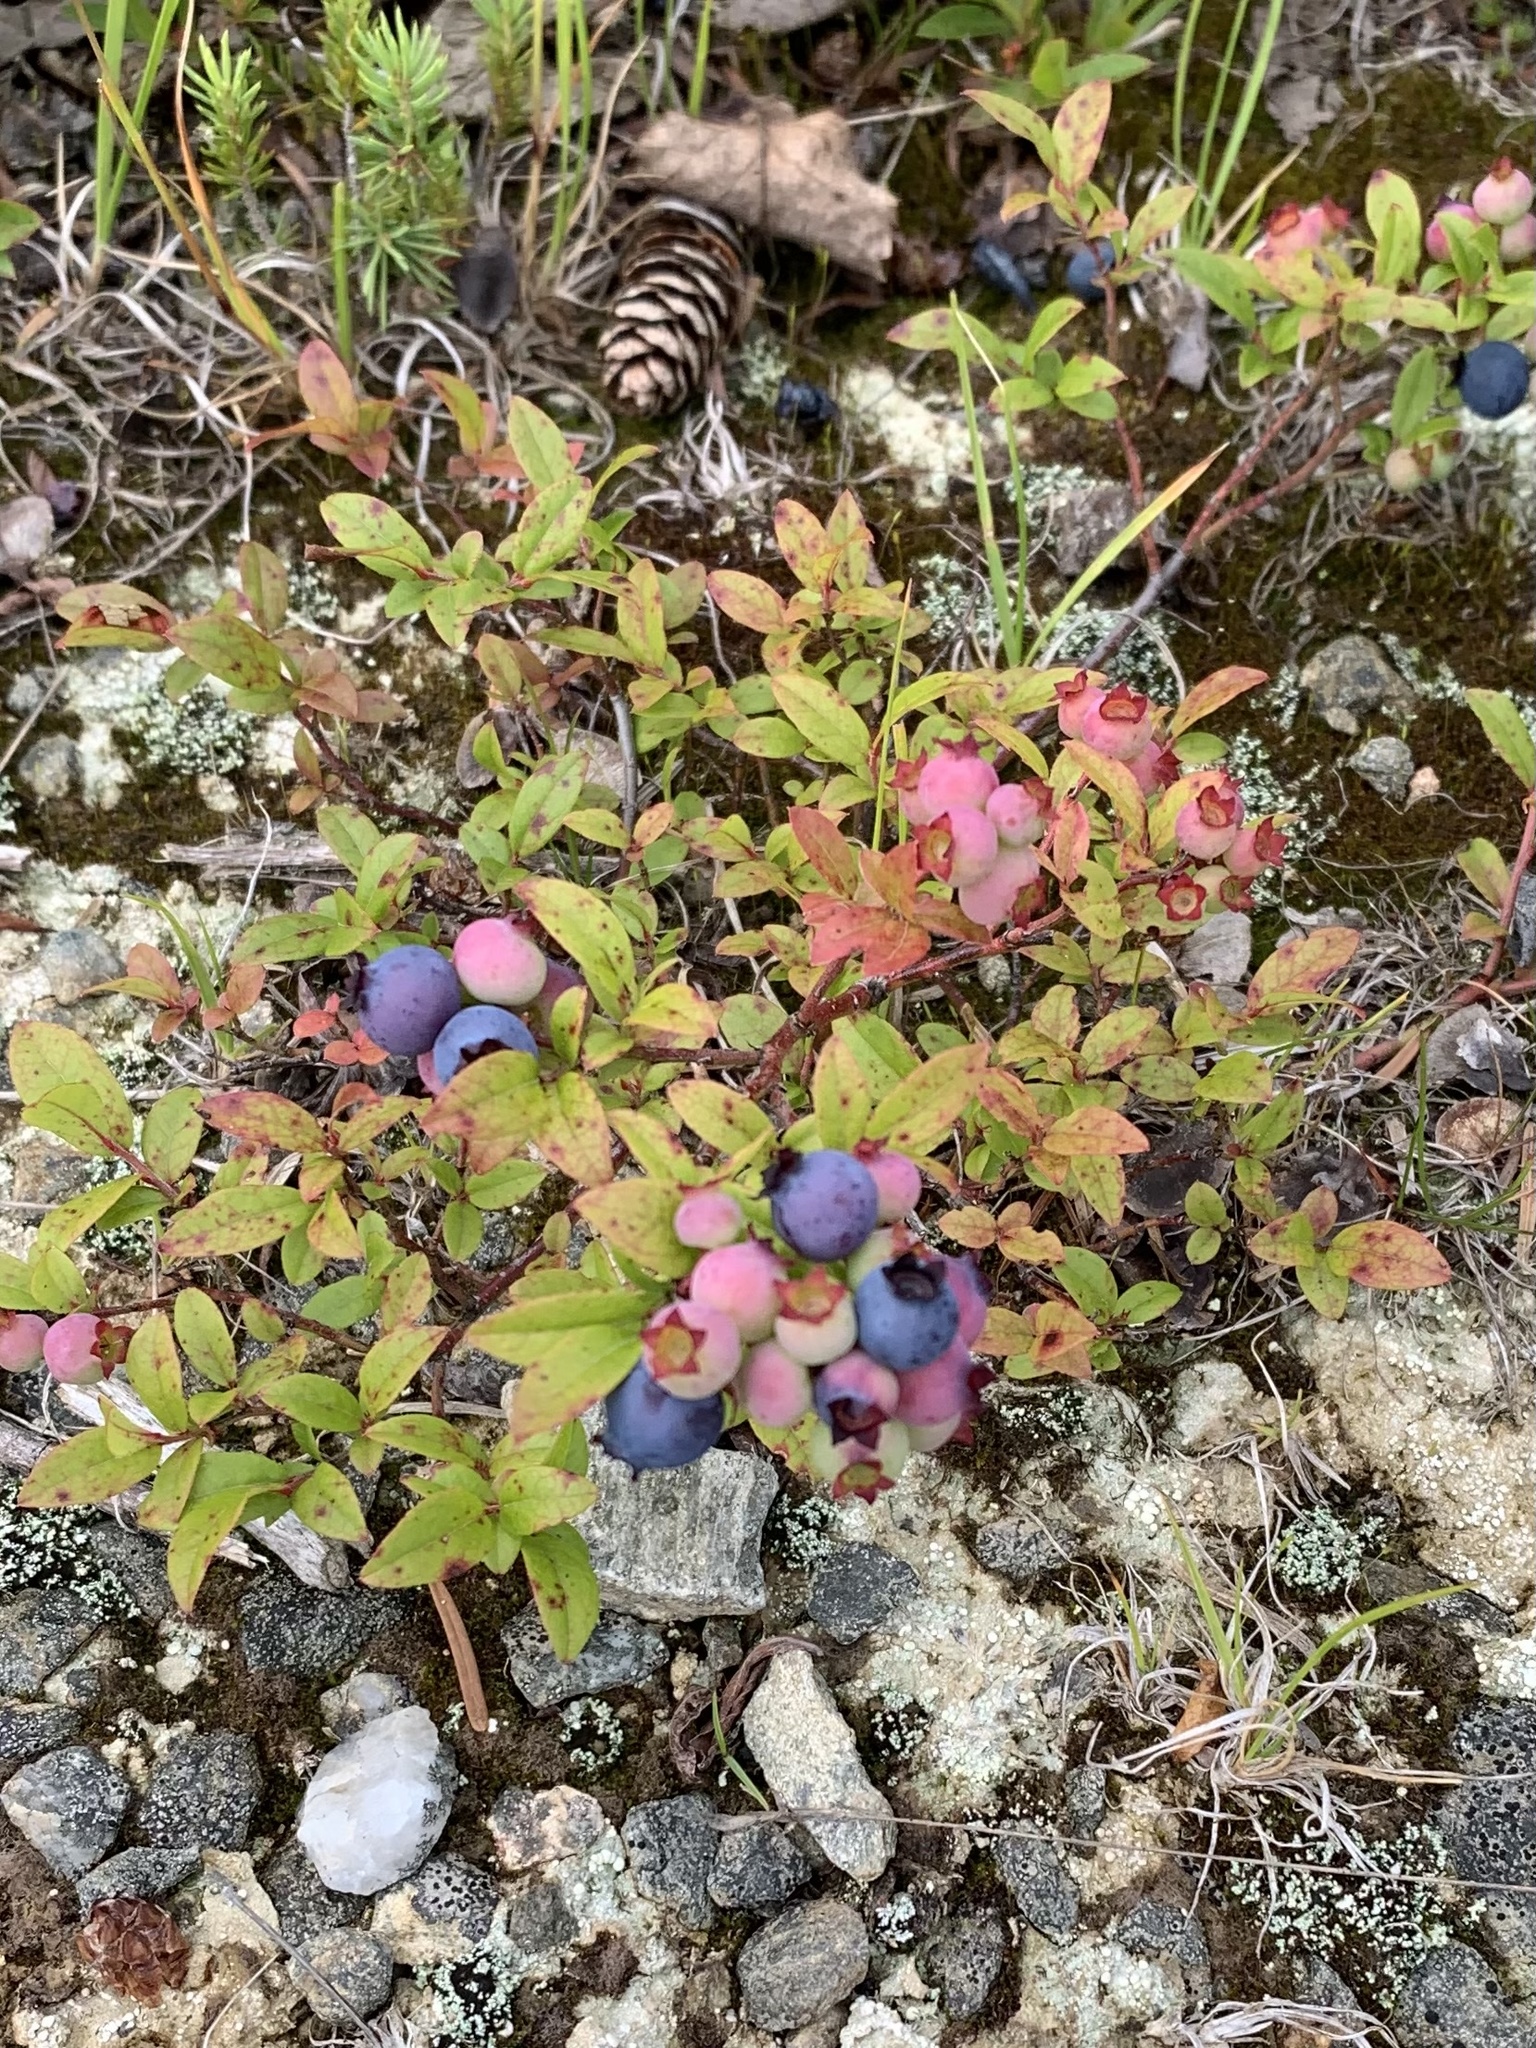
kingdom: Plantae
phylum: Tracheophyta
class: Magnoliopsida
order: Ericales
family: Ericaceae
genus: Vaccinium
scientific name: Vaccinium angustifolium
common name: Early lowbush blueberry
